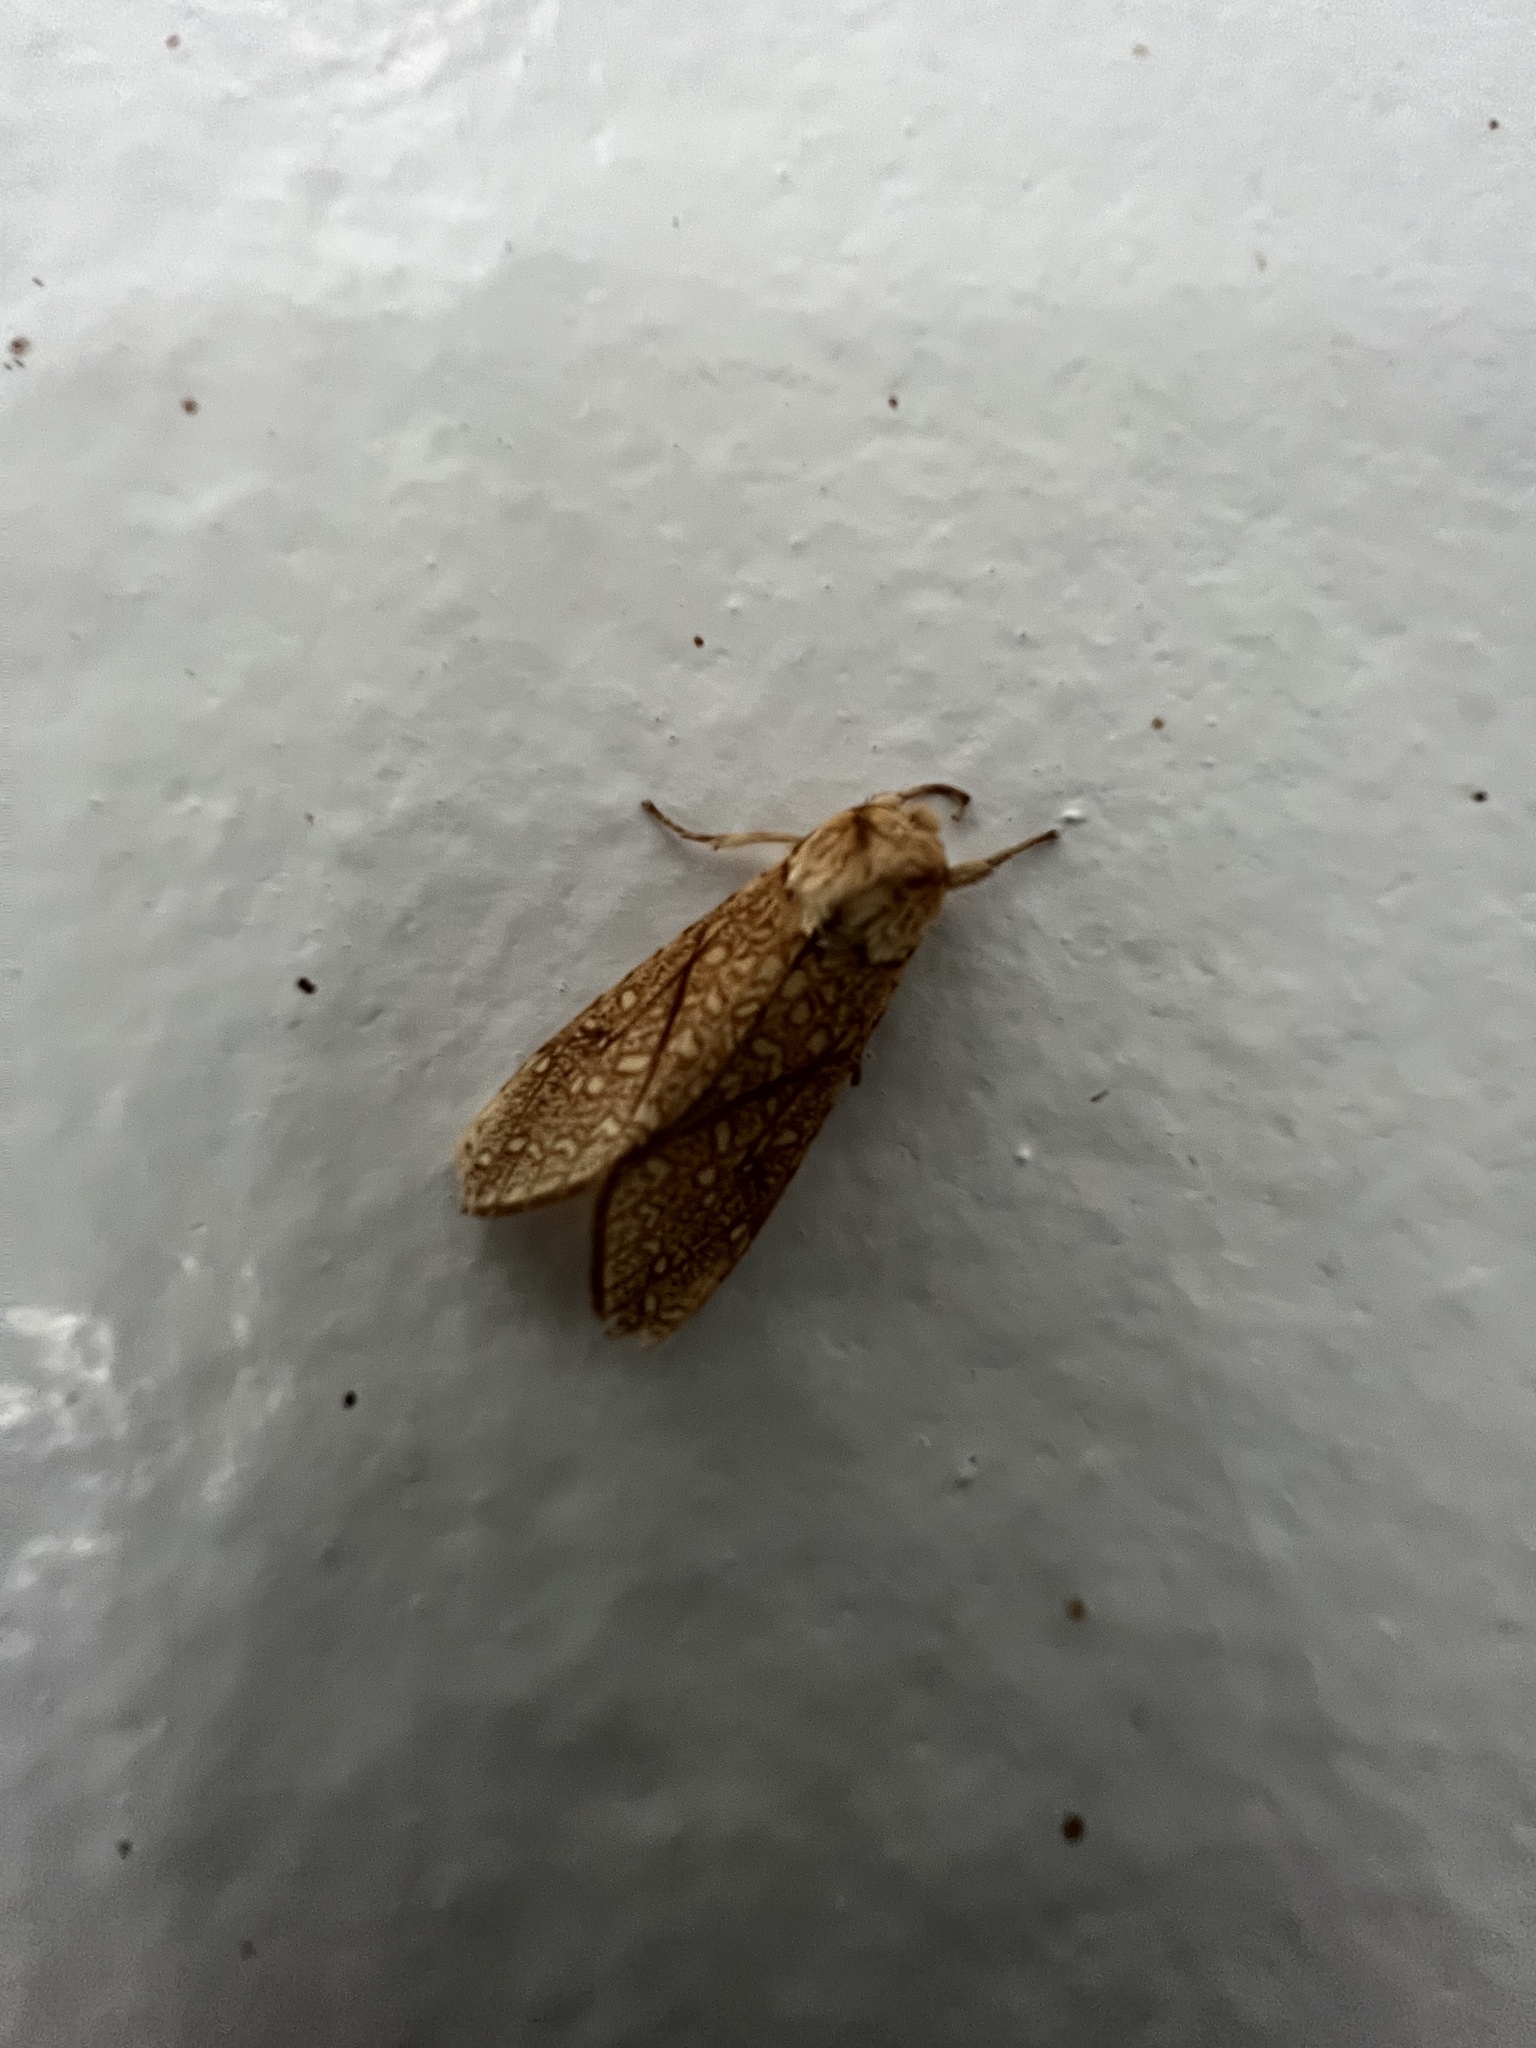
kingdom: Animalia
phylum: Arthropoda
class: Insecta
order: Lepidoptera
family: Erebidae
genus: Lophocampa
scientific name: Lophocampa mixta
